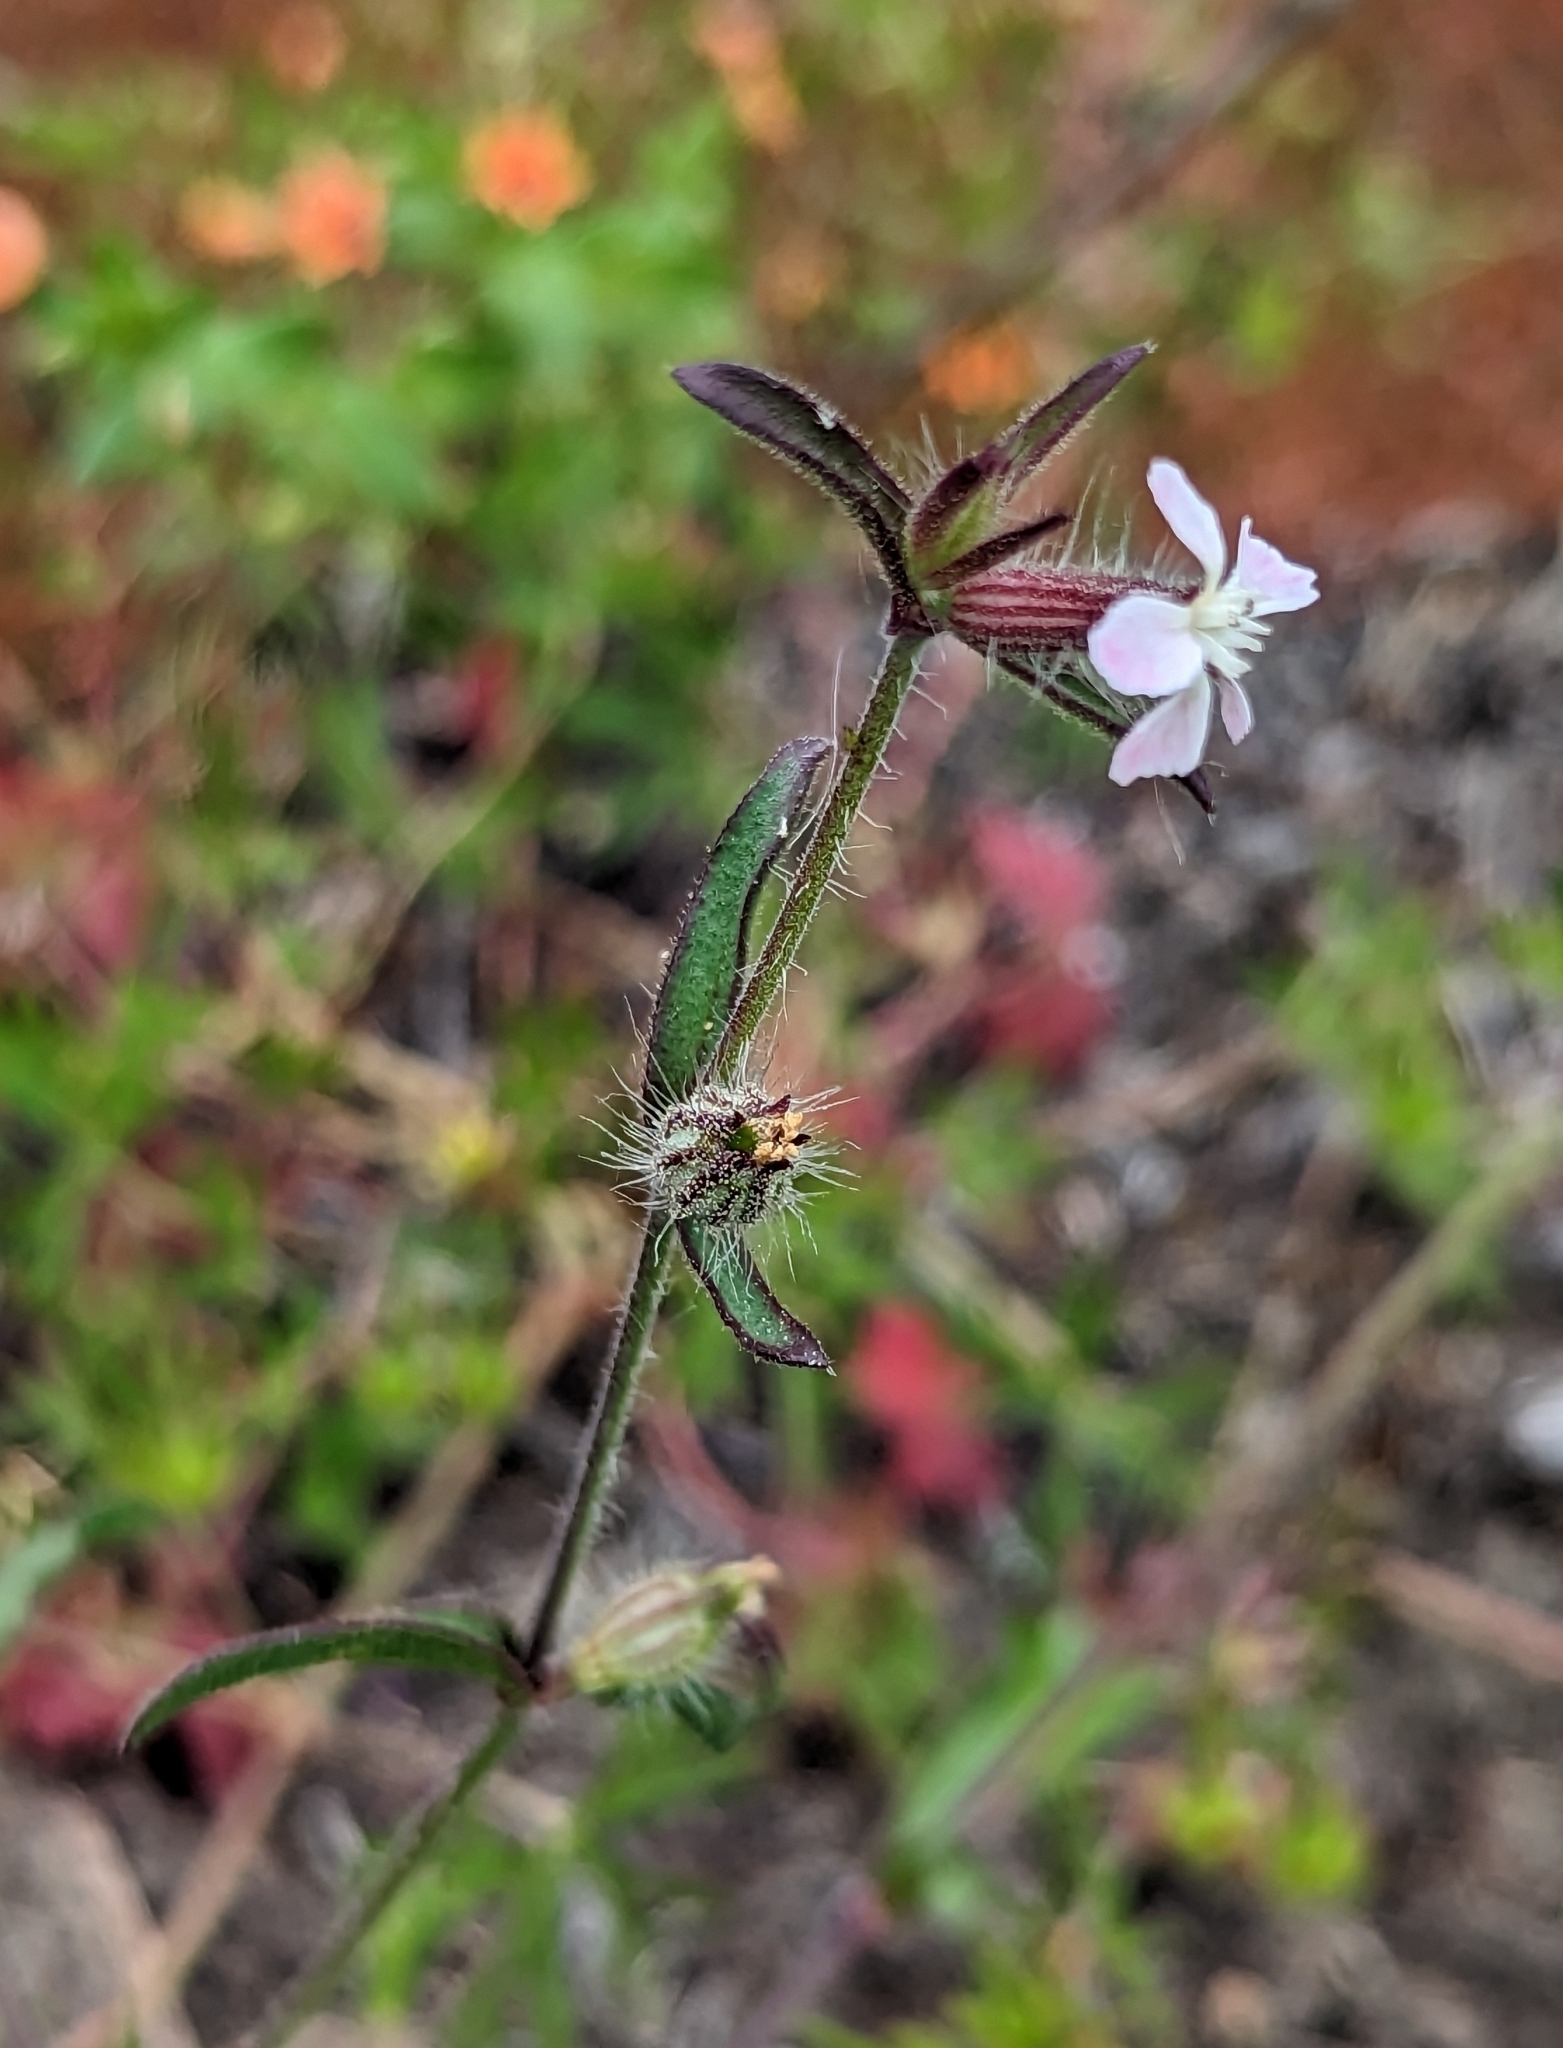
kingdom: Plantae
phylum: Tracheophyta
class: Magnoliopsida
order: Caryophyllales
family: Caryophyllaceae
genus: Silene
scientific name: Silene gallica
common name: Small-flowered catchfly
